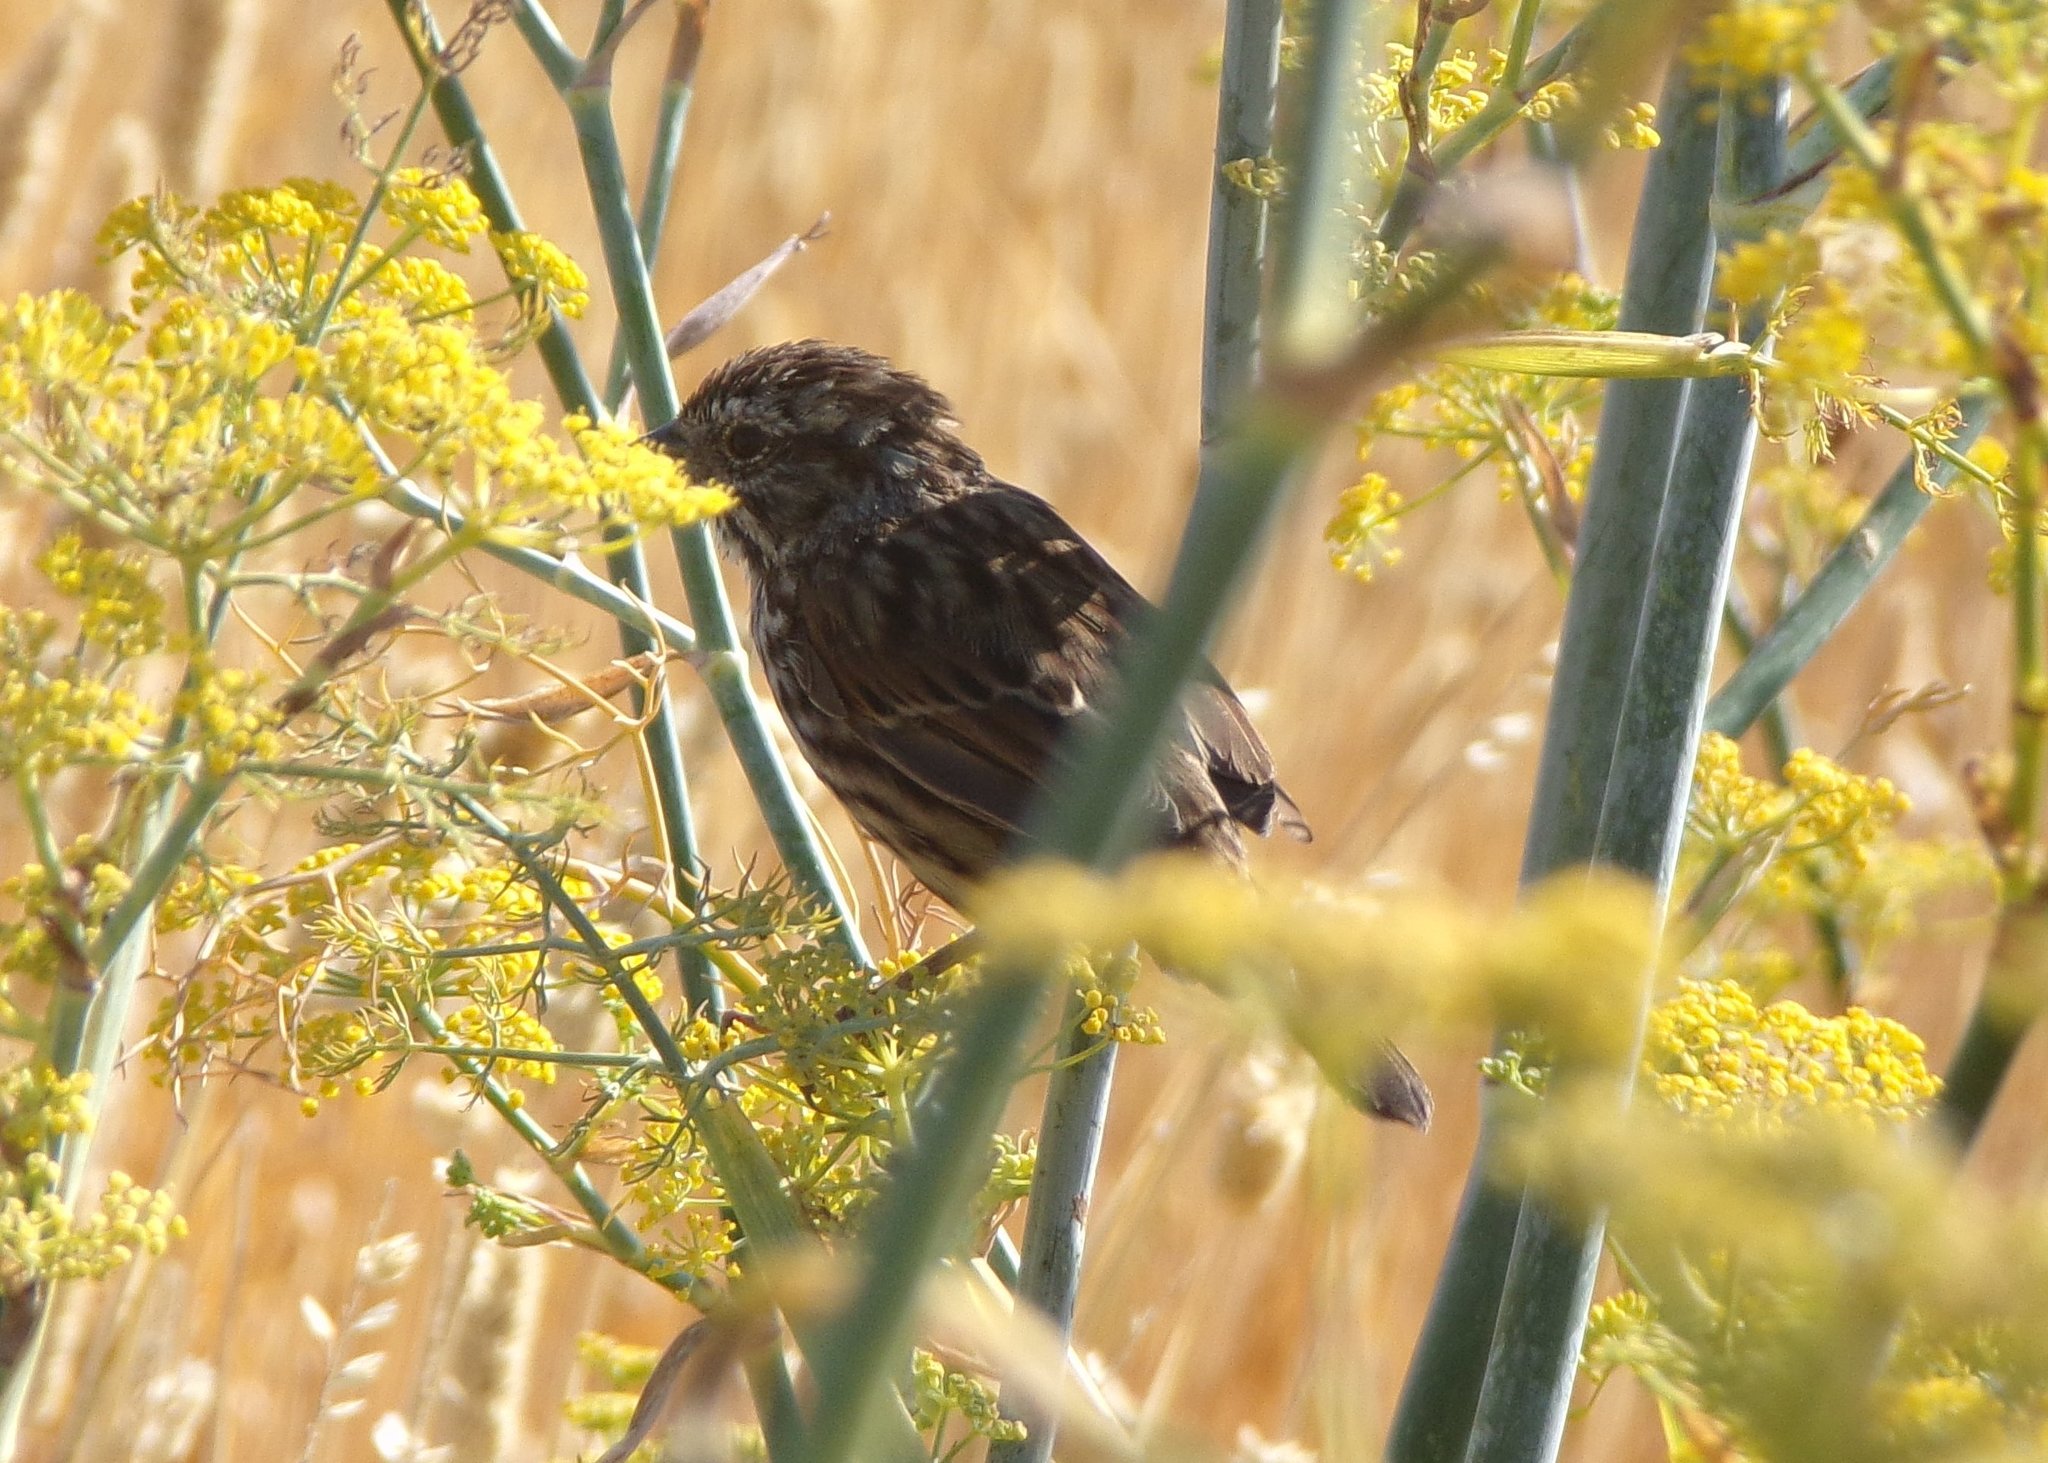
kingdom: Animalia
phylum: Chordata
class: Aves
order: Passeriformes
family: Passerellidae
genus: Melospiza
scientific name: Melospiza melodia
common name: Song sparrow
